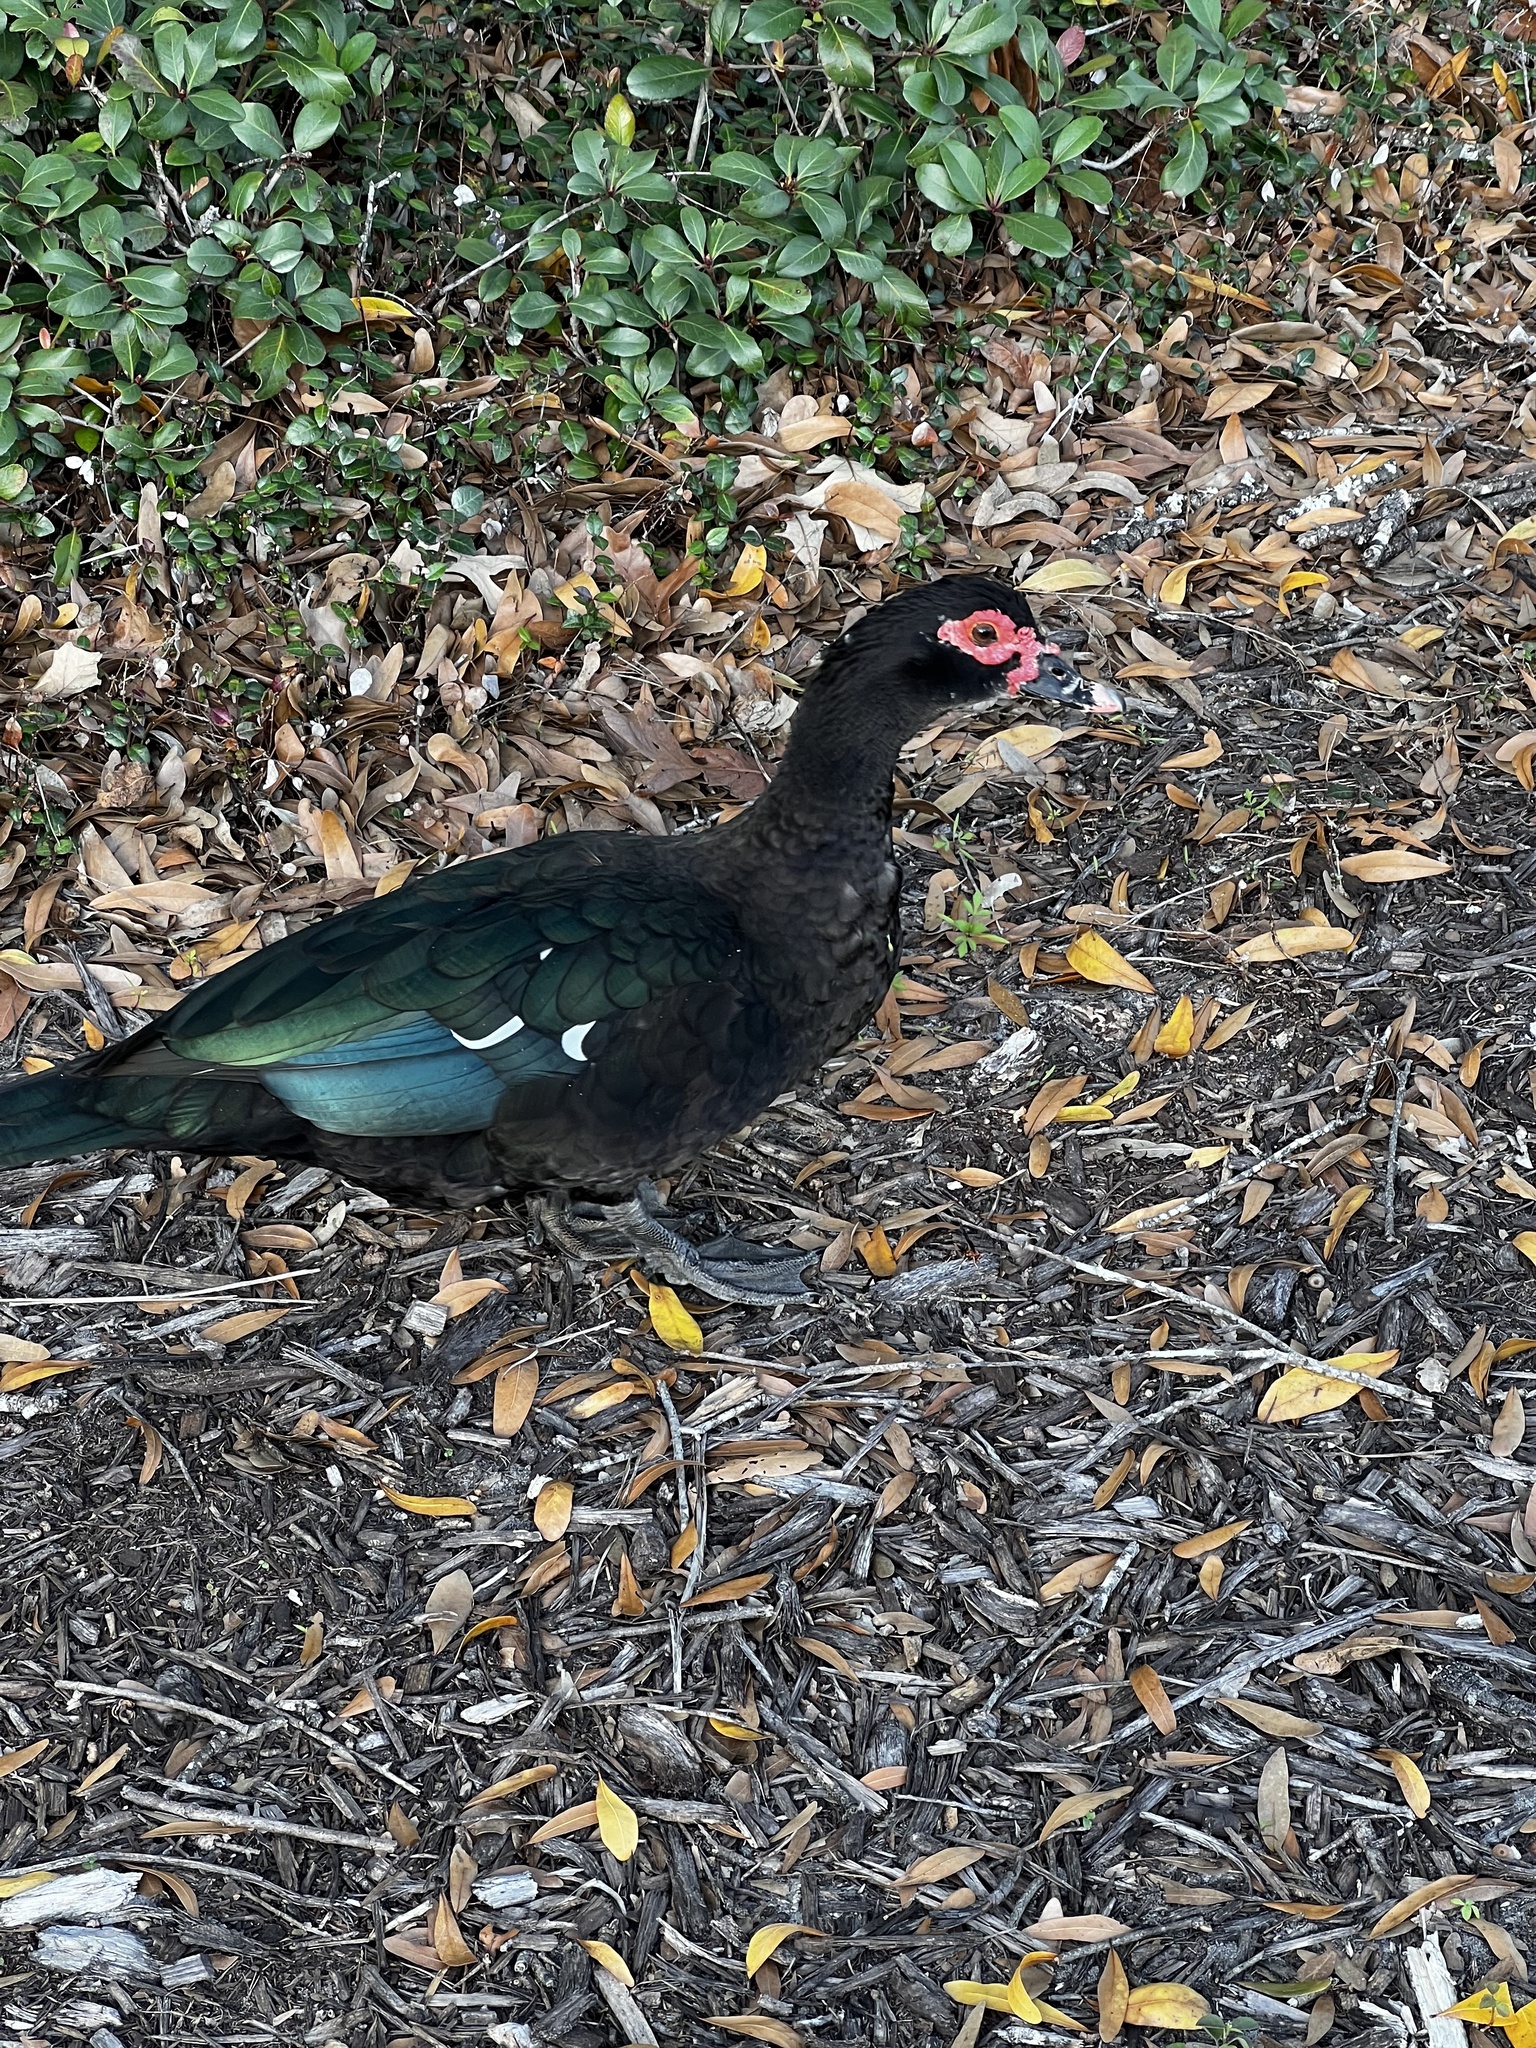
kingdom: Animalia
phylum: Chordata
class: Aves
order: Anseriformes
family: Anatidae
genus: Cairina
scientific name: Cairina moschata
